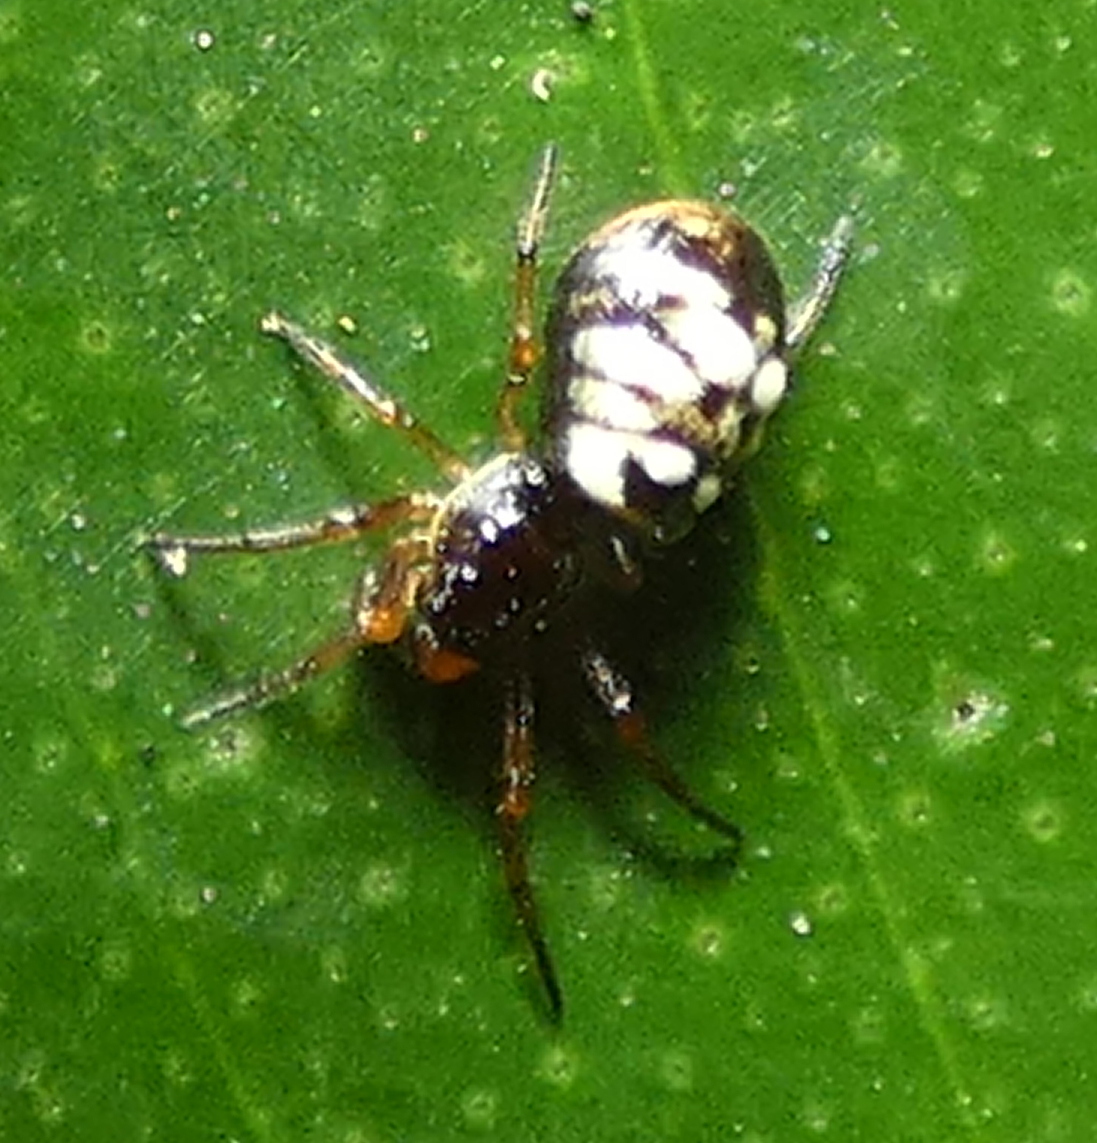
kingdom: Animalia
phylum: Arthropoda
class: Arachnida
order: Araneae
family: Araneidae
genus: Micrathena
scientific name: Micrathena patruelis
